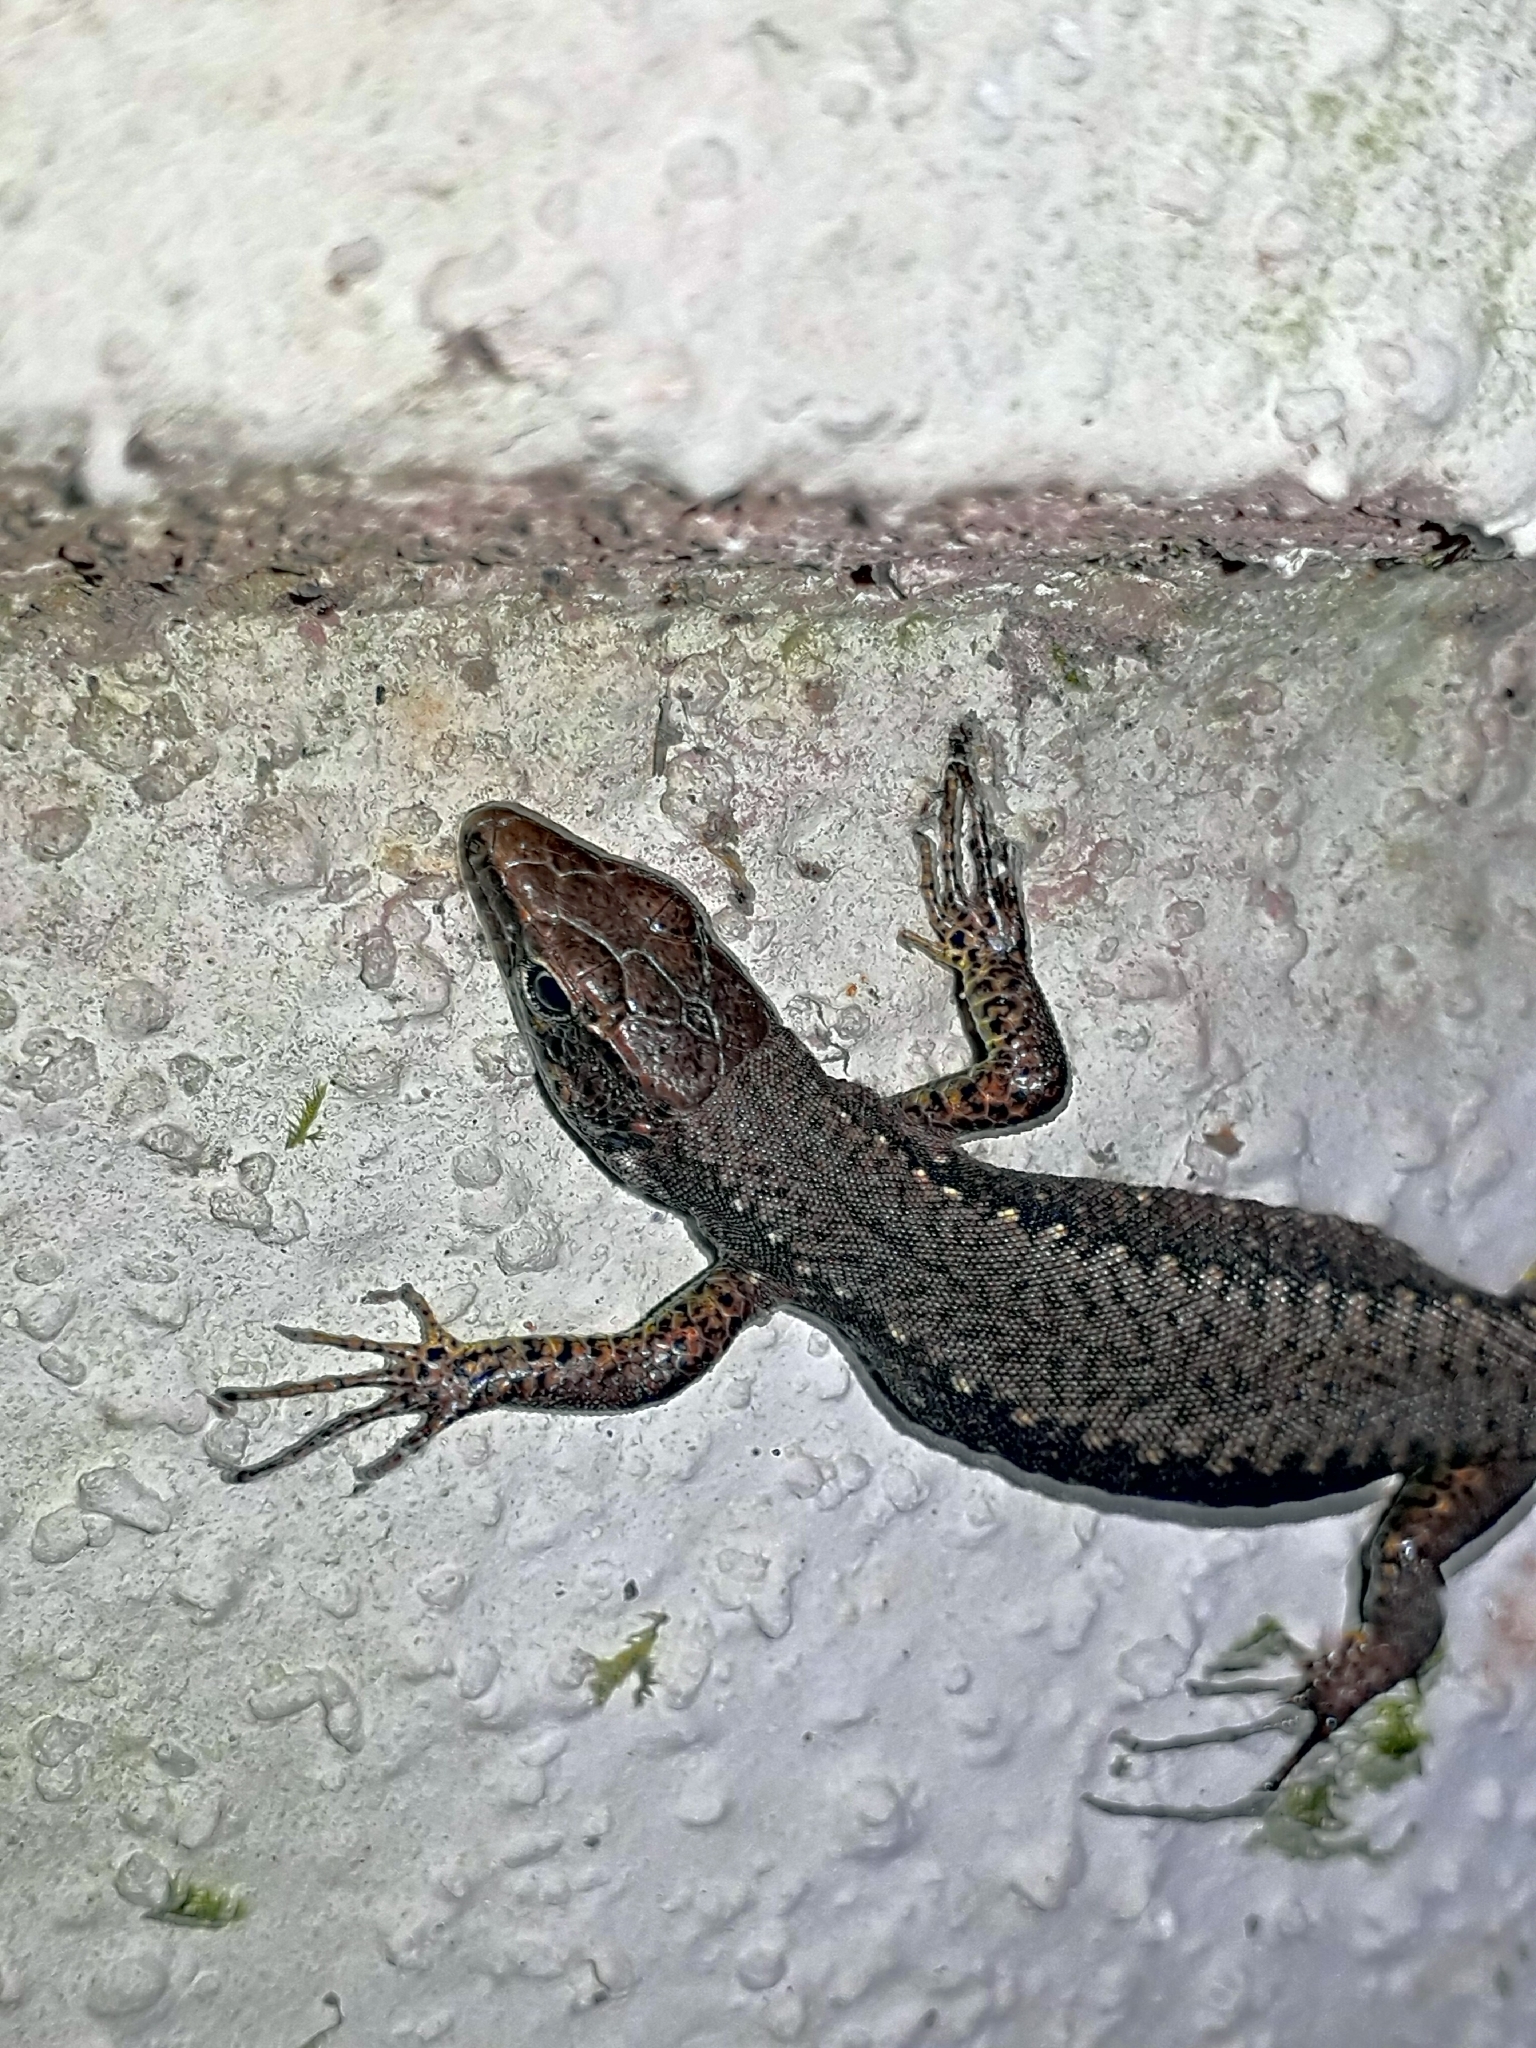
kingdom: Animalia
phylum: Chordata
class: Squamata
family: Lacertidae
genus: Darevskia
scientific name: Darevskia chlorogaster
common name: Green-bellied lizard
